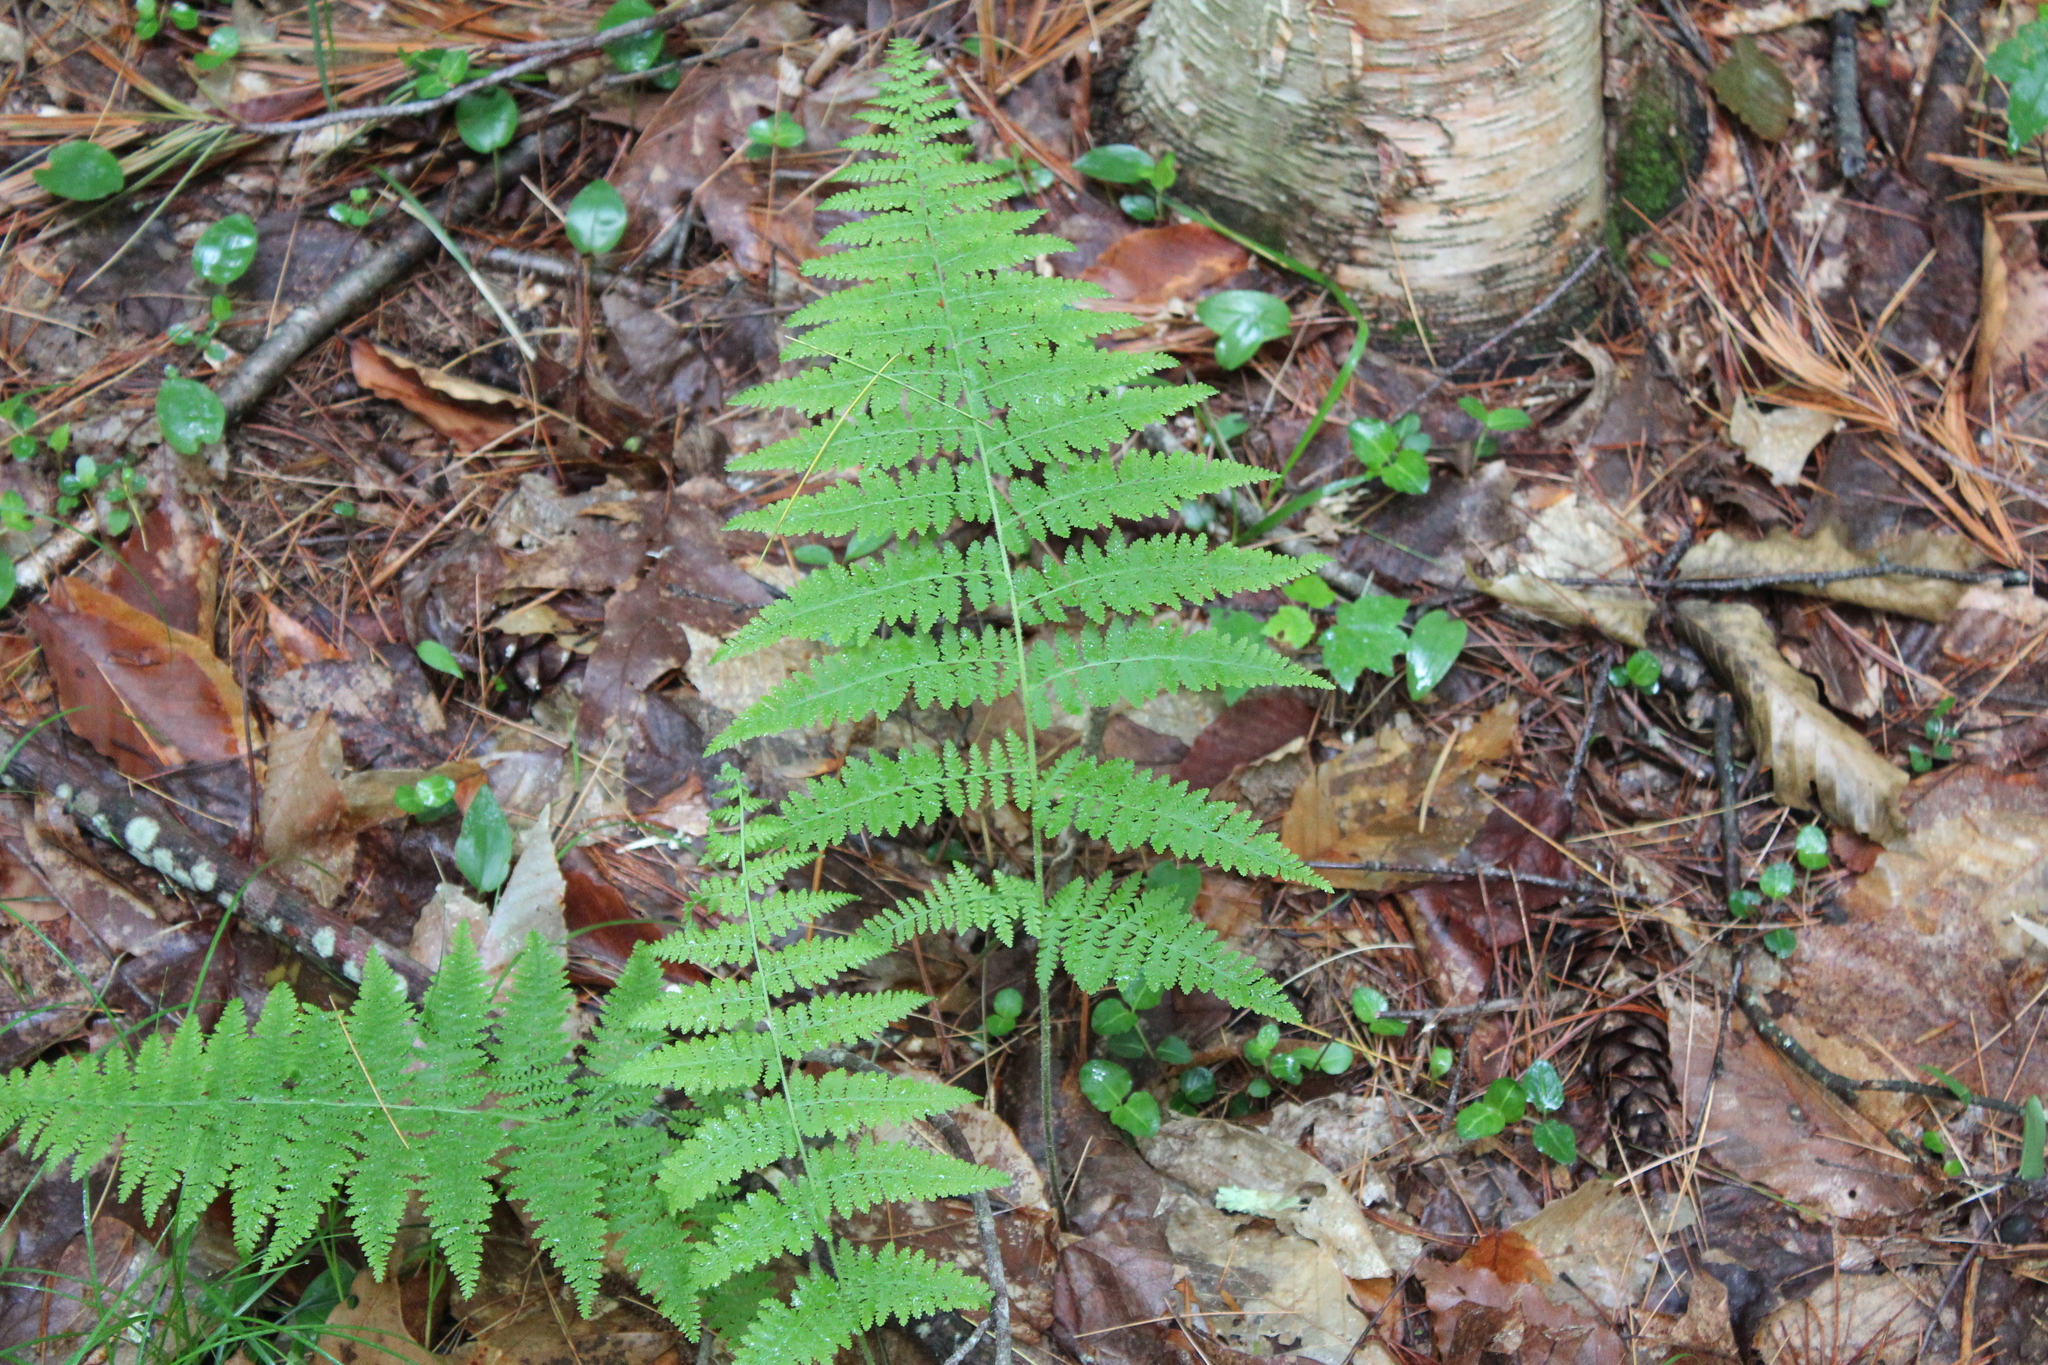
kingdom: Plantae
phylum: Tracheophyta
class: Polypodiopsida
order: Polypodiales
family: Dennstaedtiaceae
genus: Sitobolium
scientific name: Sitobolium punctilobum
